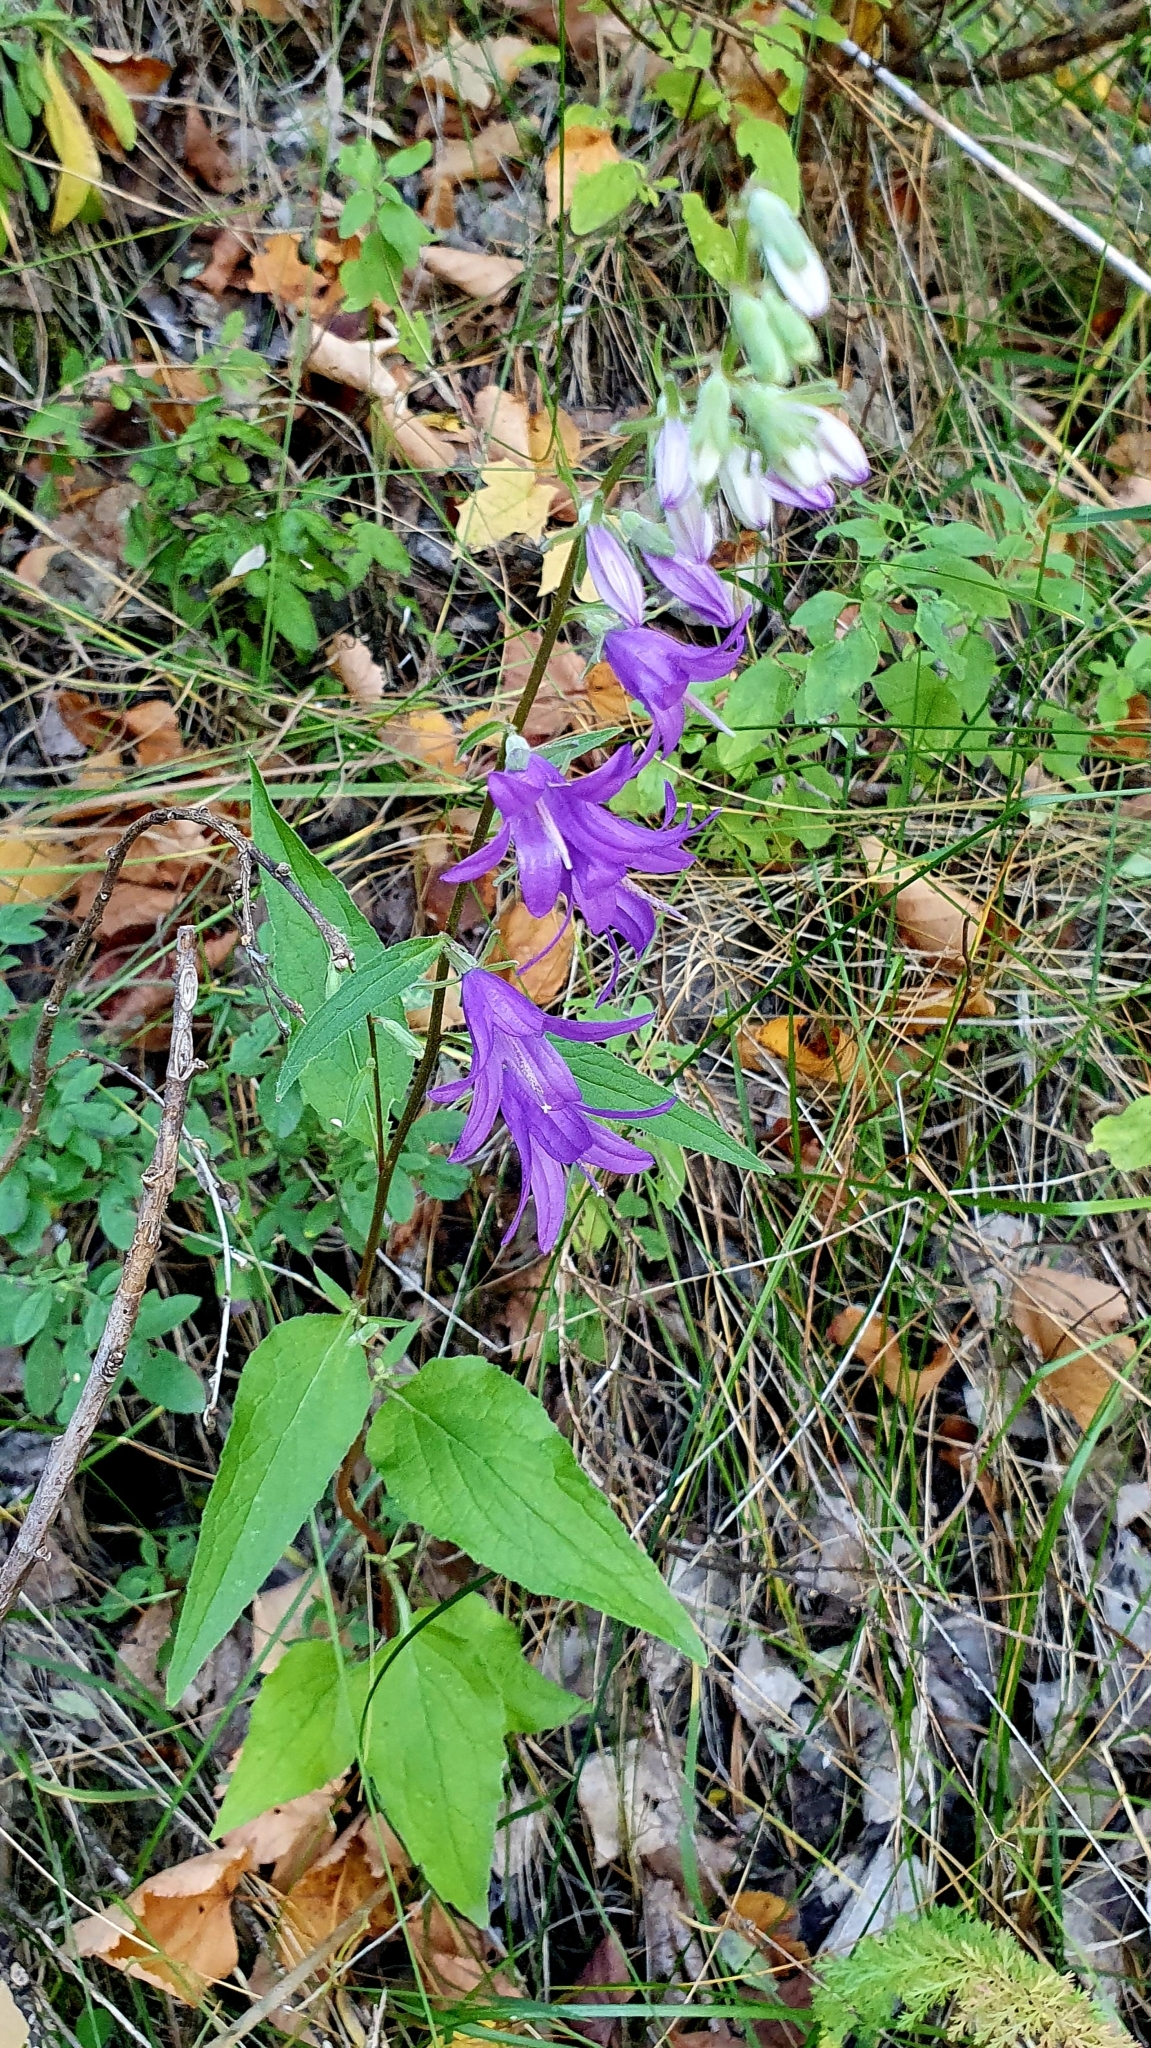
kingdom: Plantae
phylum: Tracheophyta
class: Magnoliopsida
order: Asterales
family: Campanulaceae
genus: Campanula
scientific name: Campanula rapunculoides
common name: Creeping bellflower
